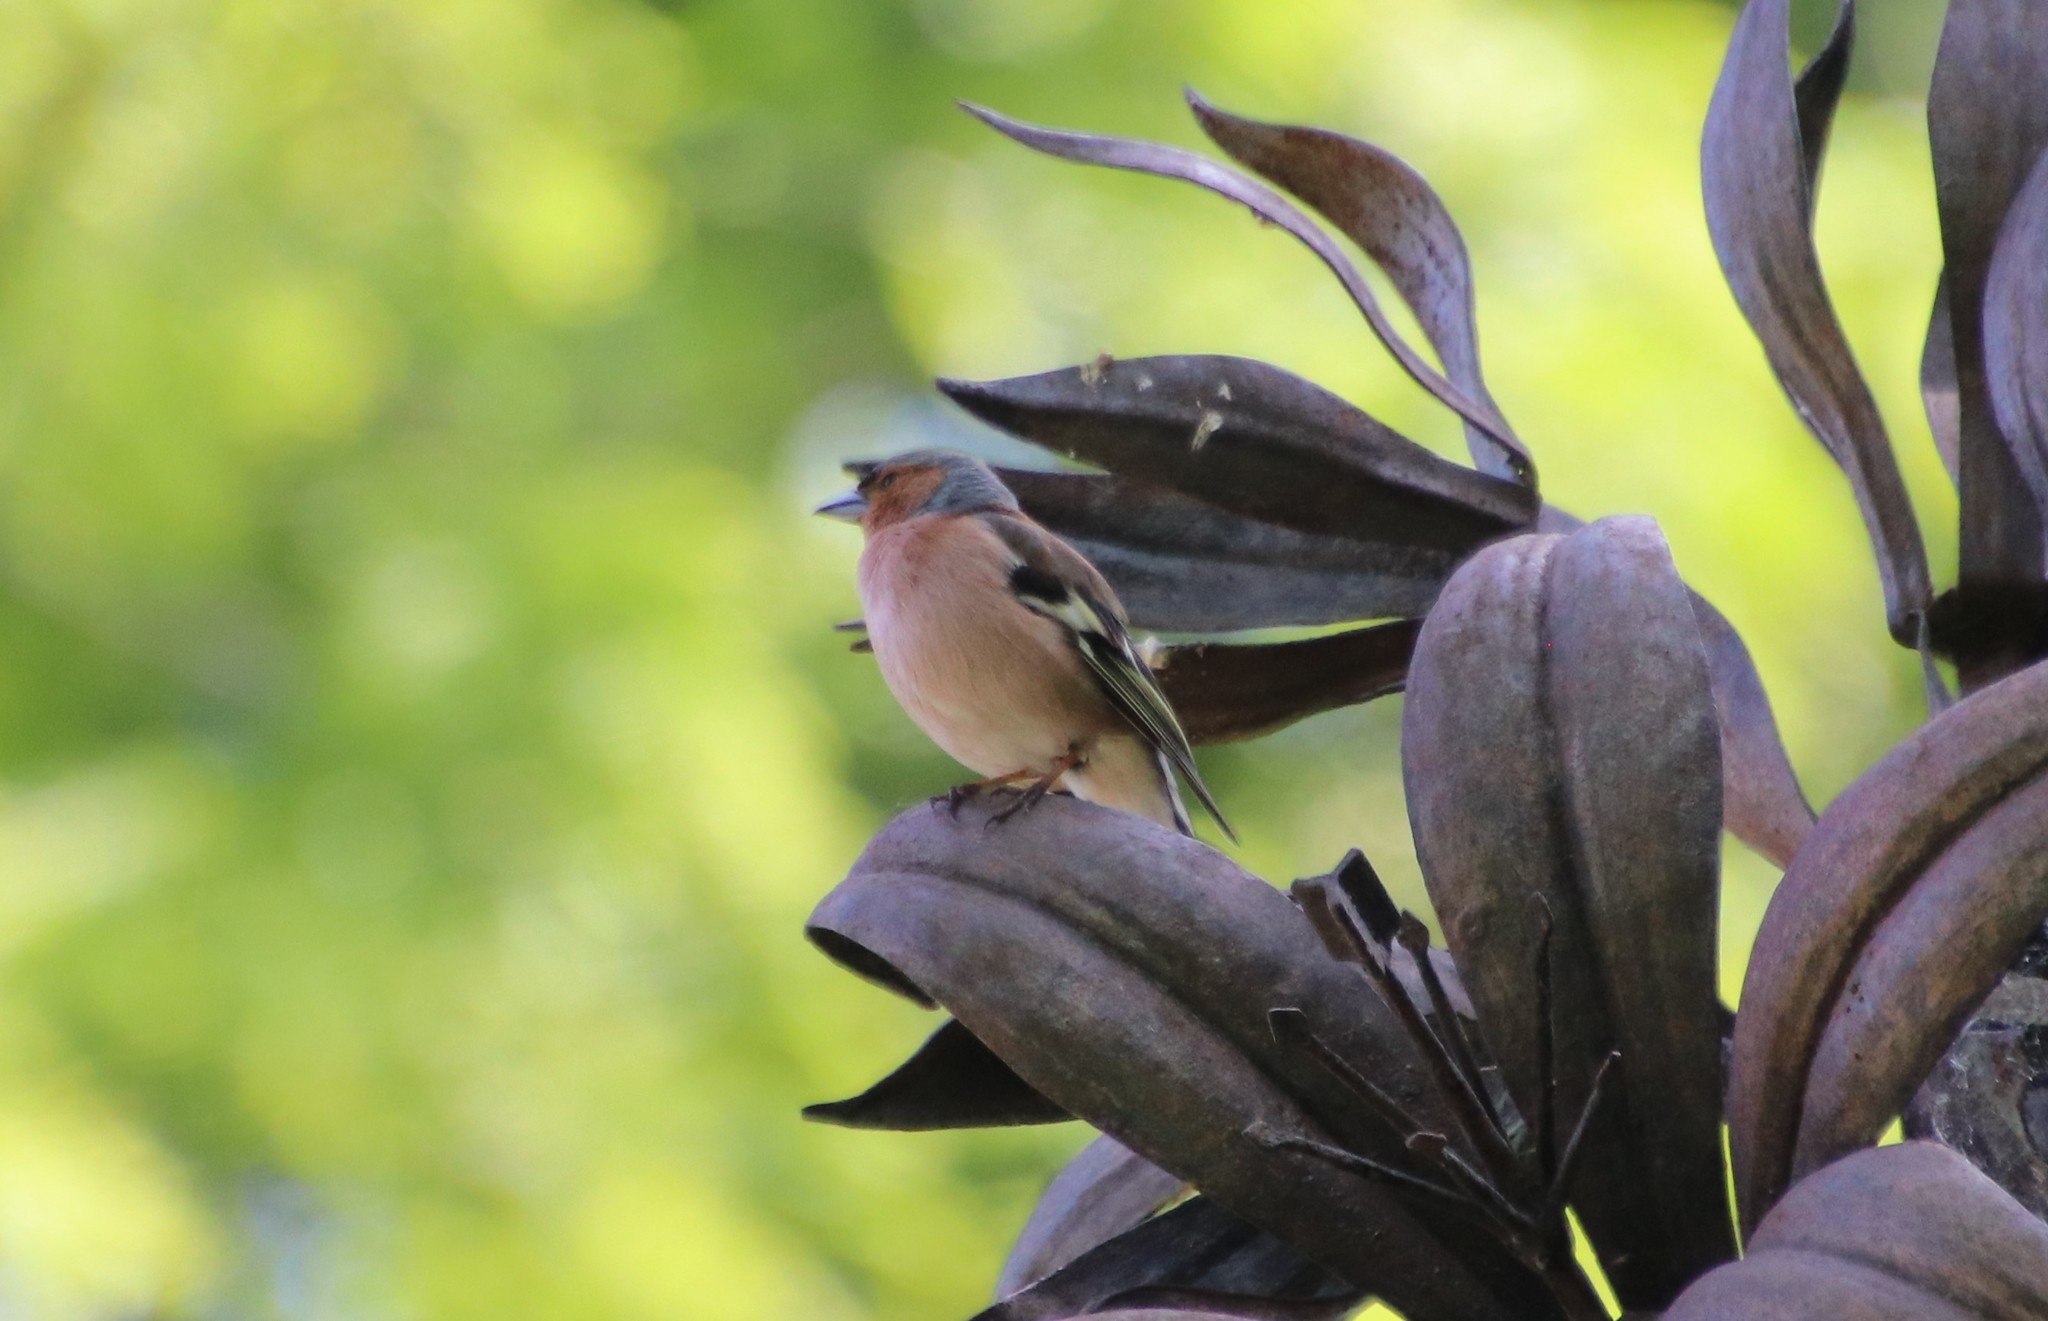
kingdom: Animalia
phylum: Chordata
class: Aves
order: Passeriformes
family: Fringillidae
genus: Fringilla
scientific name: Fringilla coelebs
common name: Common chaffinch
